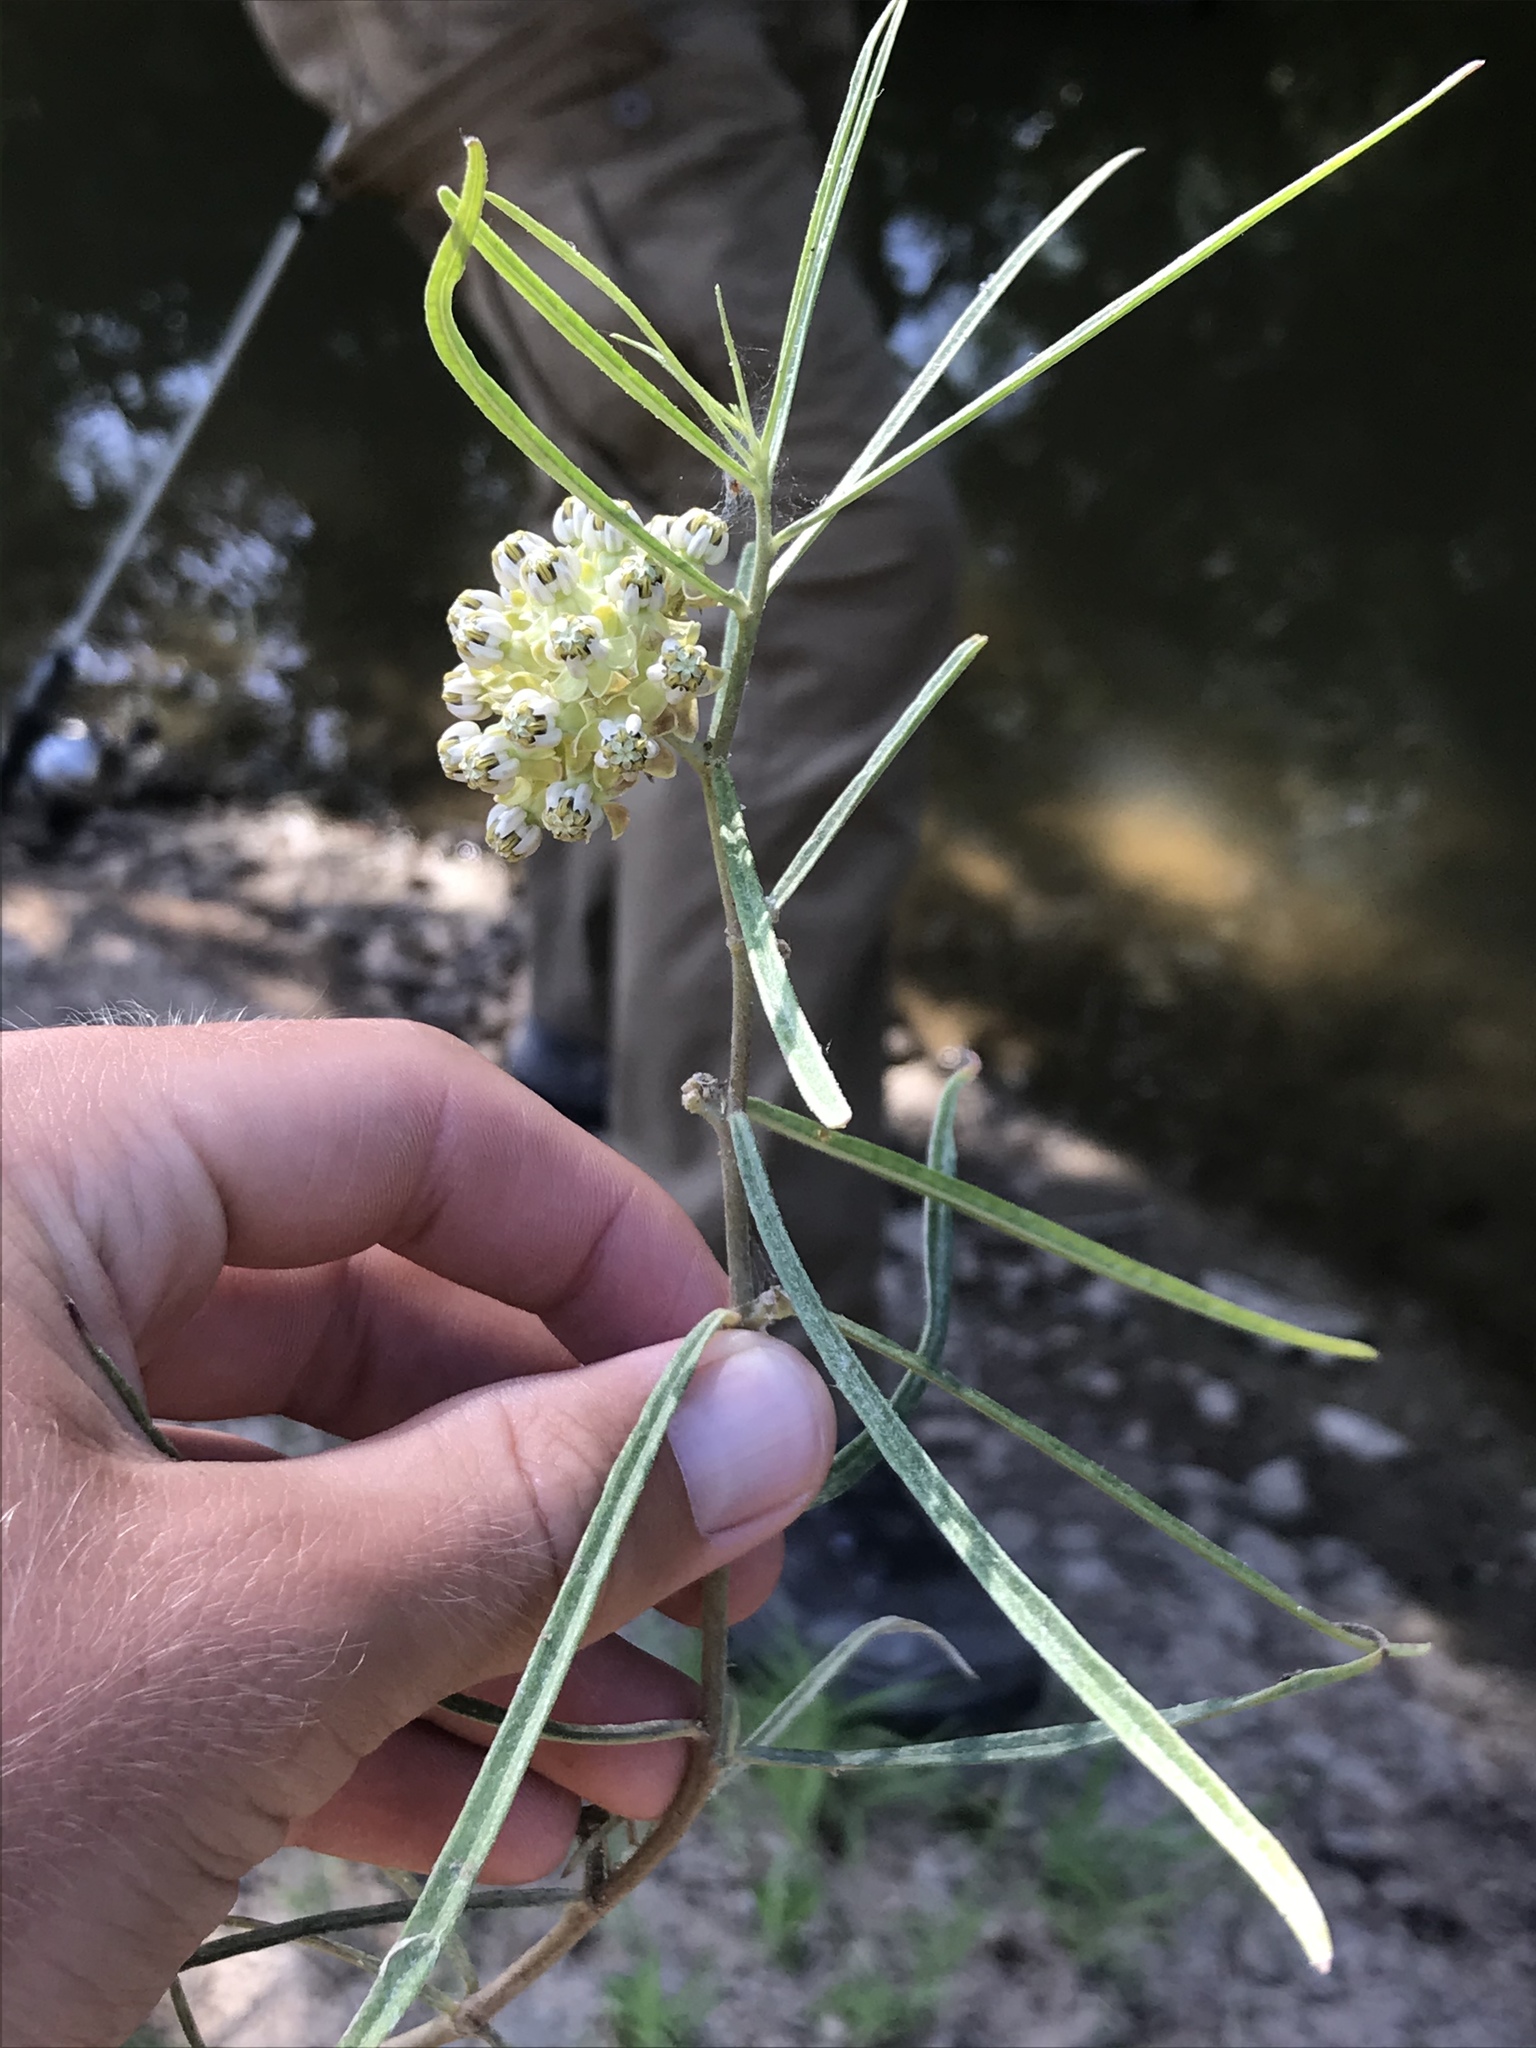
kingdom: Plantae
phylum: Tracheophyta
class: Magnoliopsida
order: Gentianales
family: Apocynaceae
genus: Asclepias
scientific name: Asclepias engelmanniana
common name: Engelmann's milkweed
